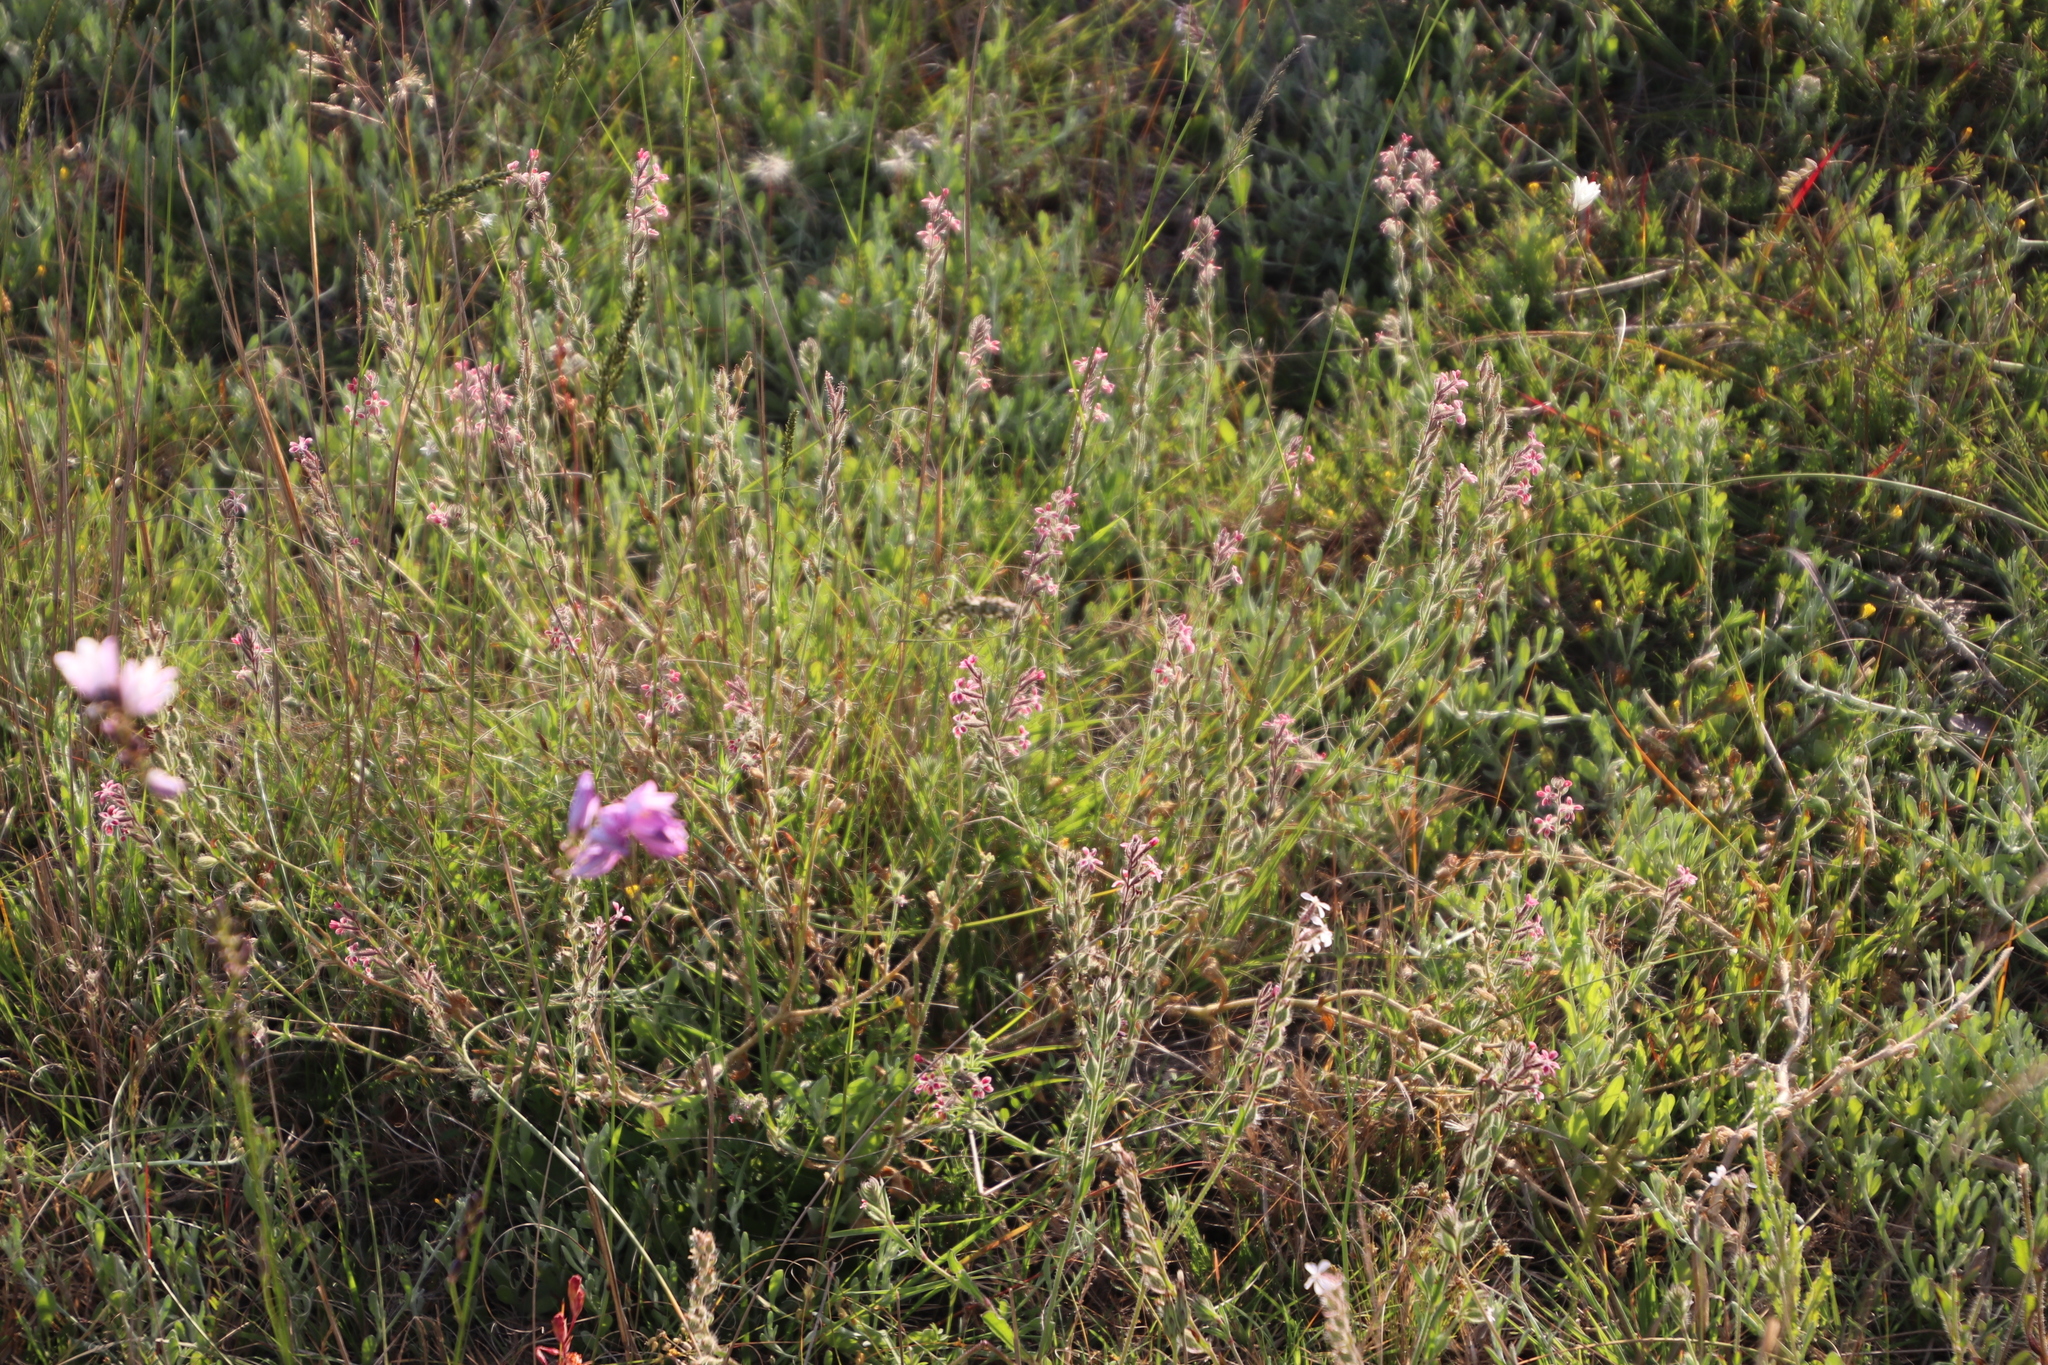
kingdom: Plantae
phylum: Tracheophyta
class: Magnoliopsida
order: Caryophyllales
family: Caryophyllaceae
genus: Silene
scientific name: Silene gallica
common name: Small-flowered catchfly
